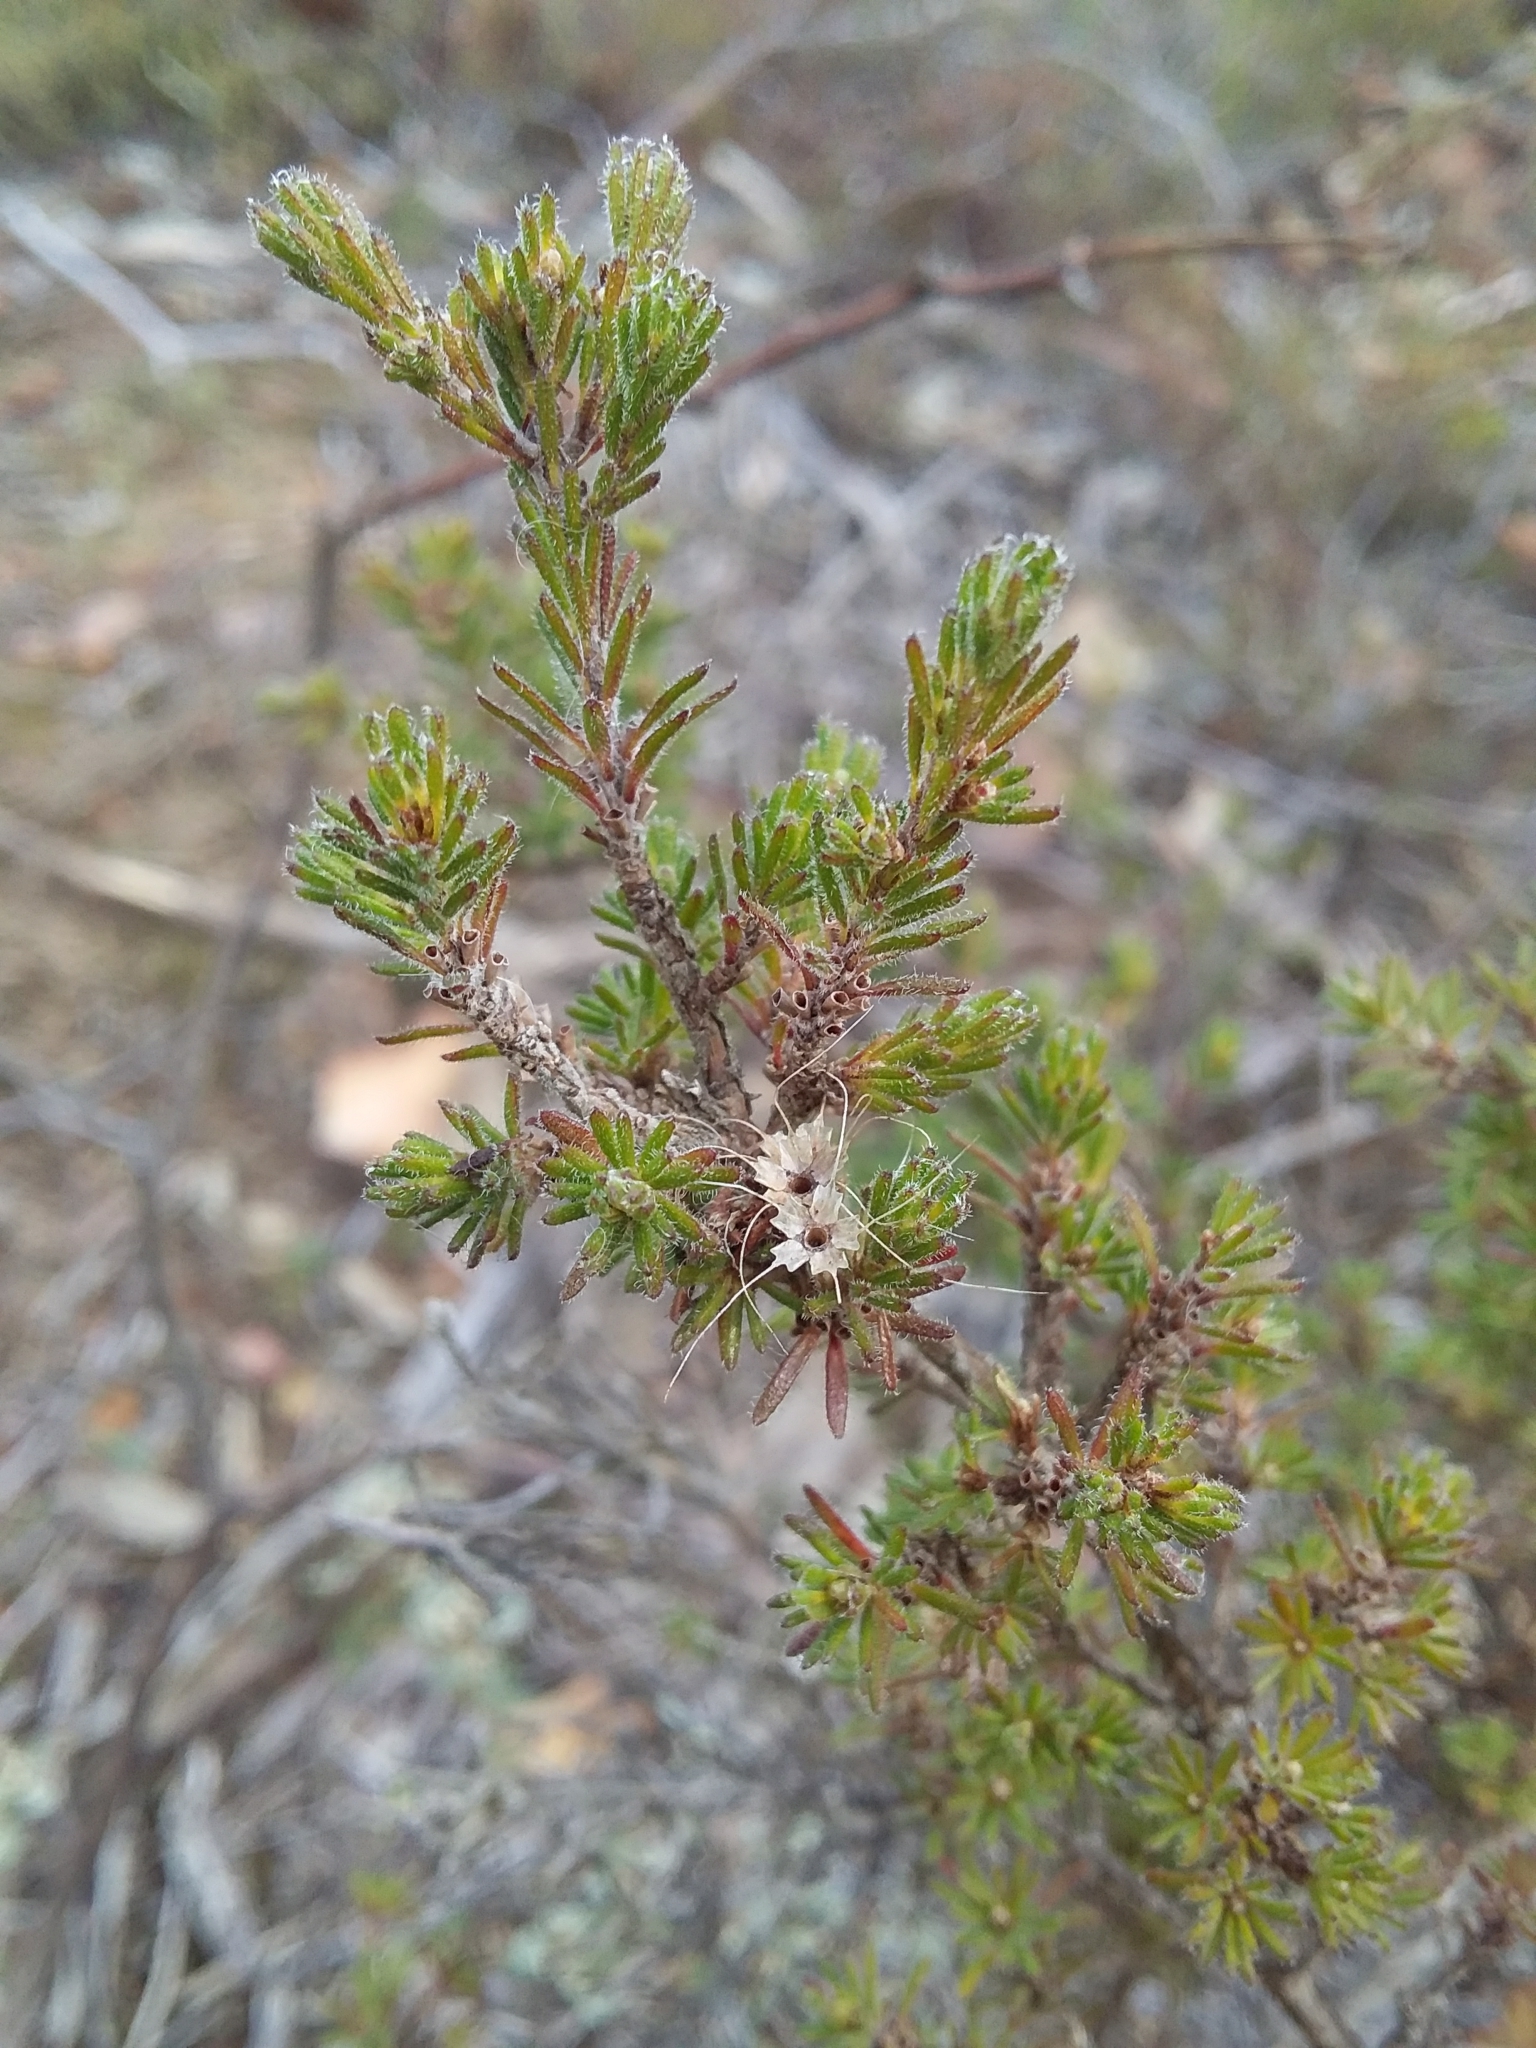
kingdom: Plantae
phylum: Tracheophyta
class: Magnoliopsida
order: Myrtales
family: Myrtaceae
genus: Calytrix
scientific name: Calytrix tetragona
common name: Common fringe myrtle
